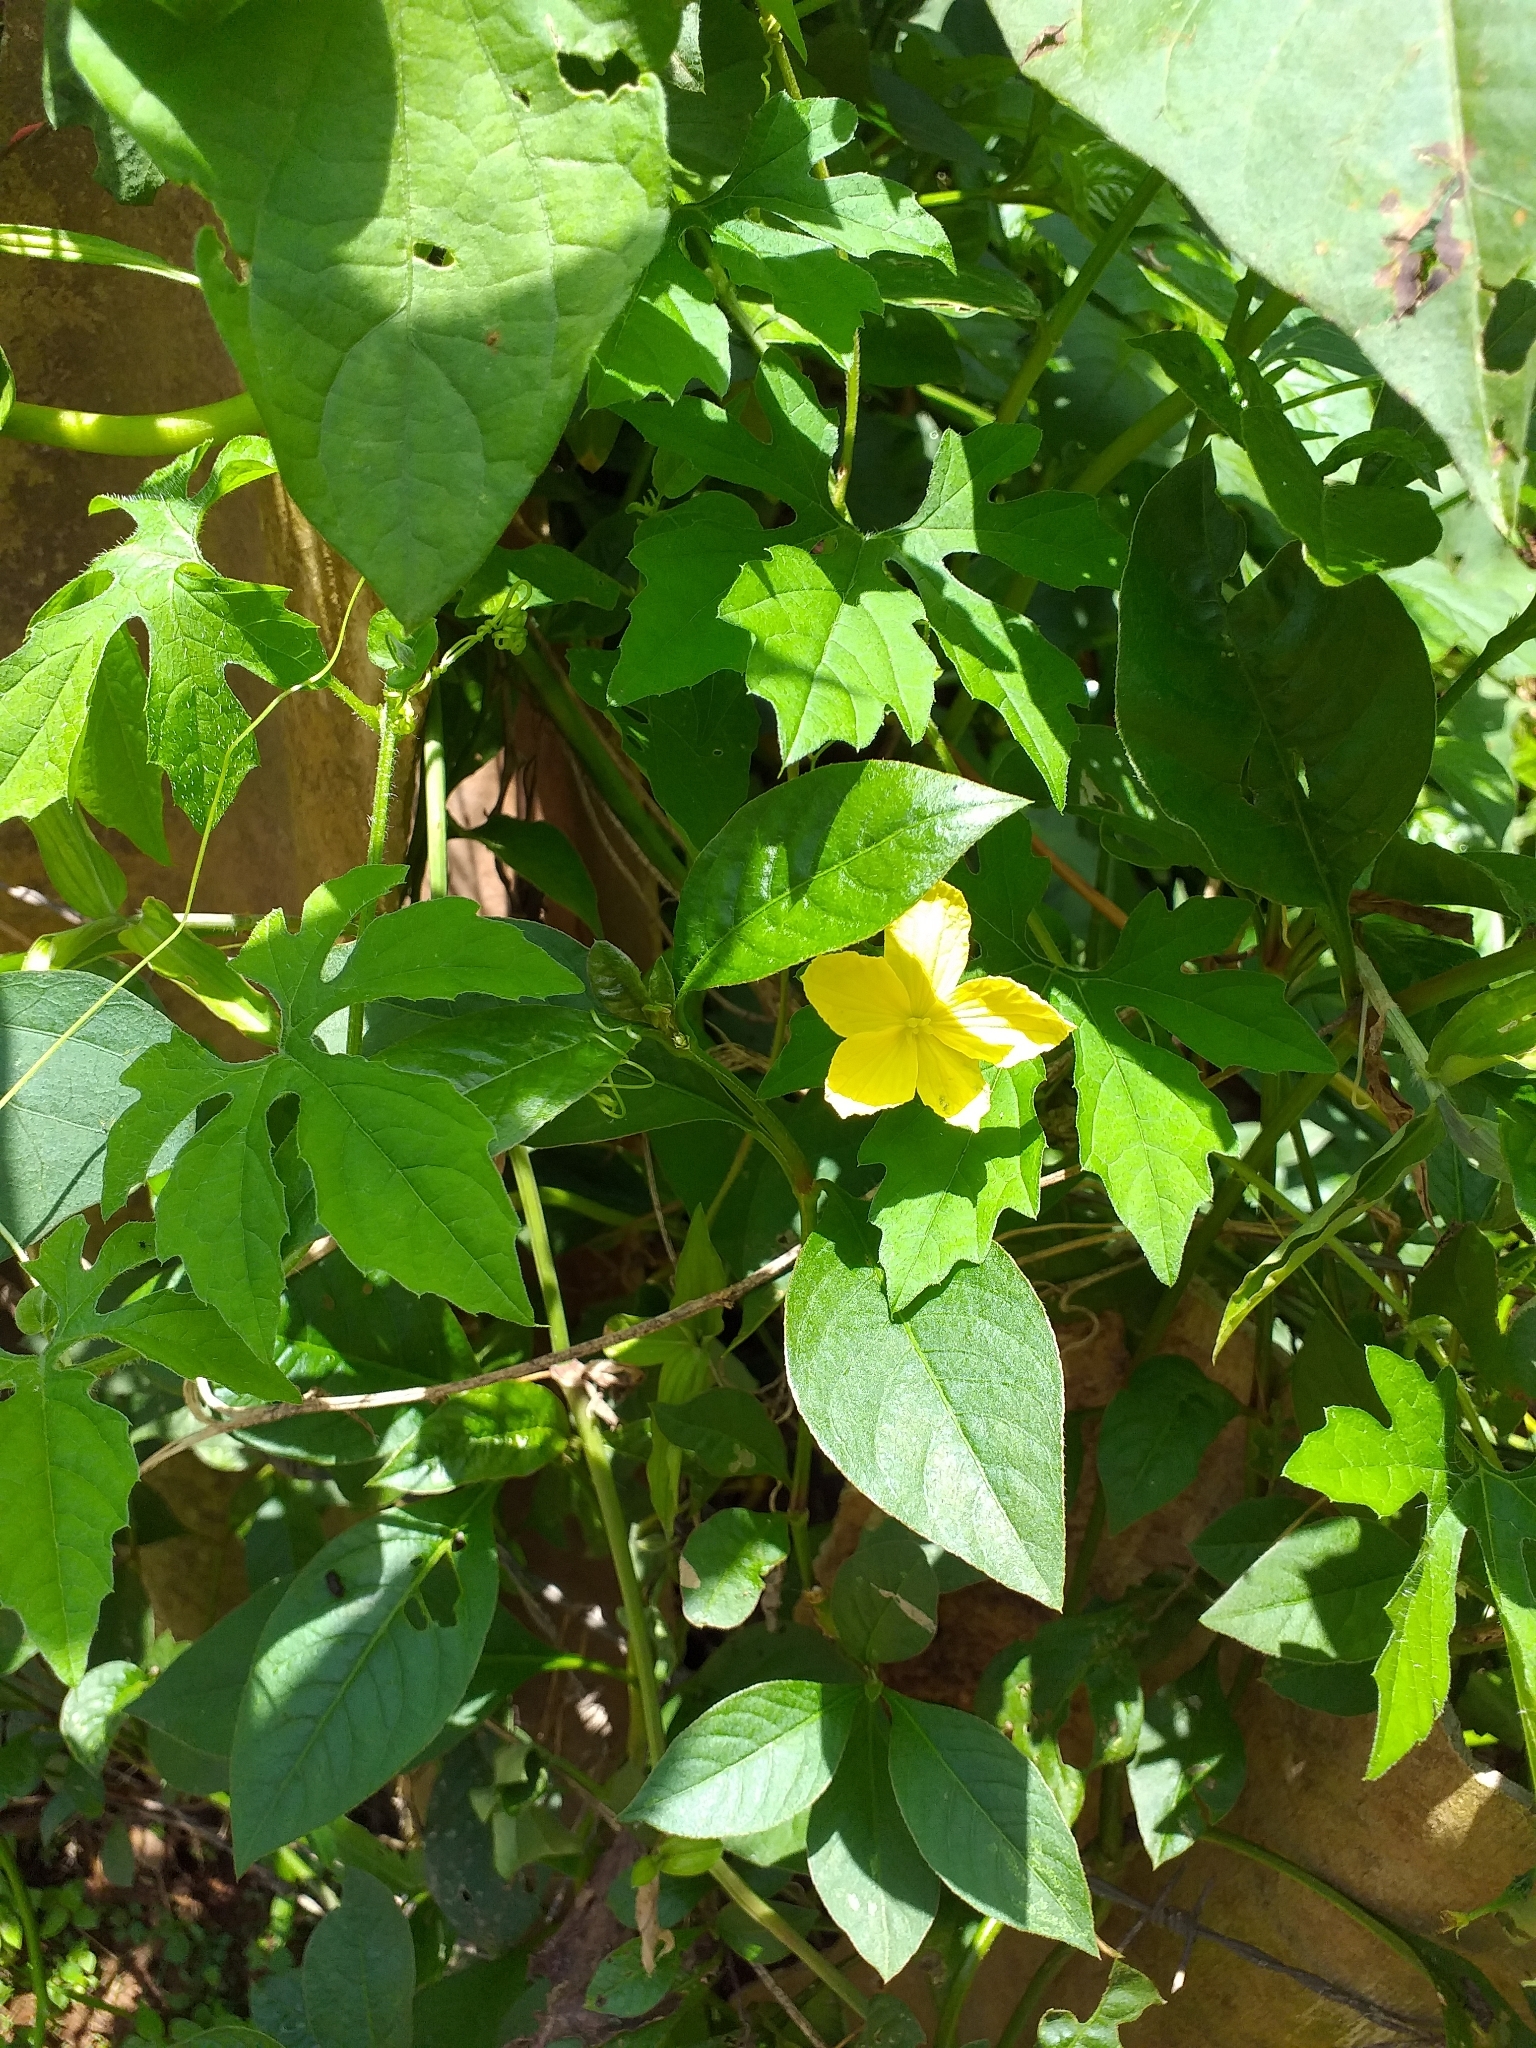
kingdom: Plantae
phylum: Tracheophyta
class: Magnoliopsida
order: Cucurbitales
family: Cucurbitaceae
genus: Momordica
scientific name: Momordica charantia
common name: Balsampear
